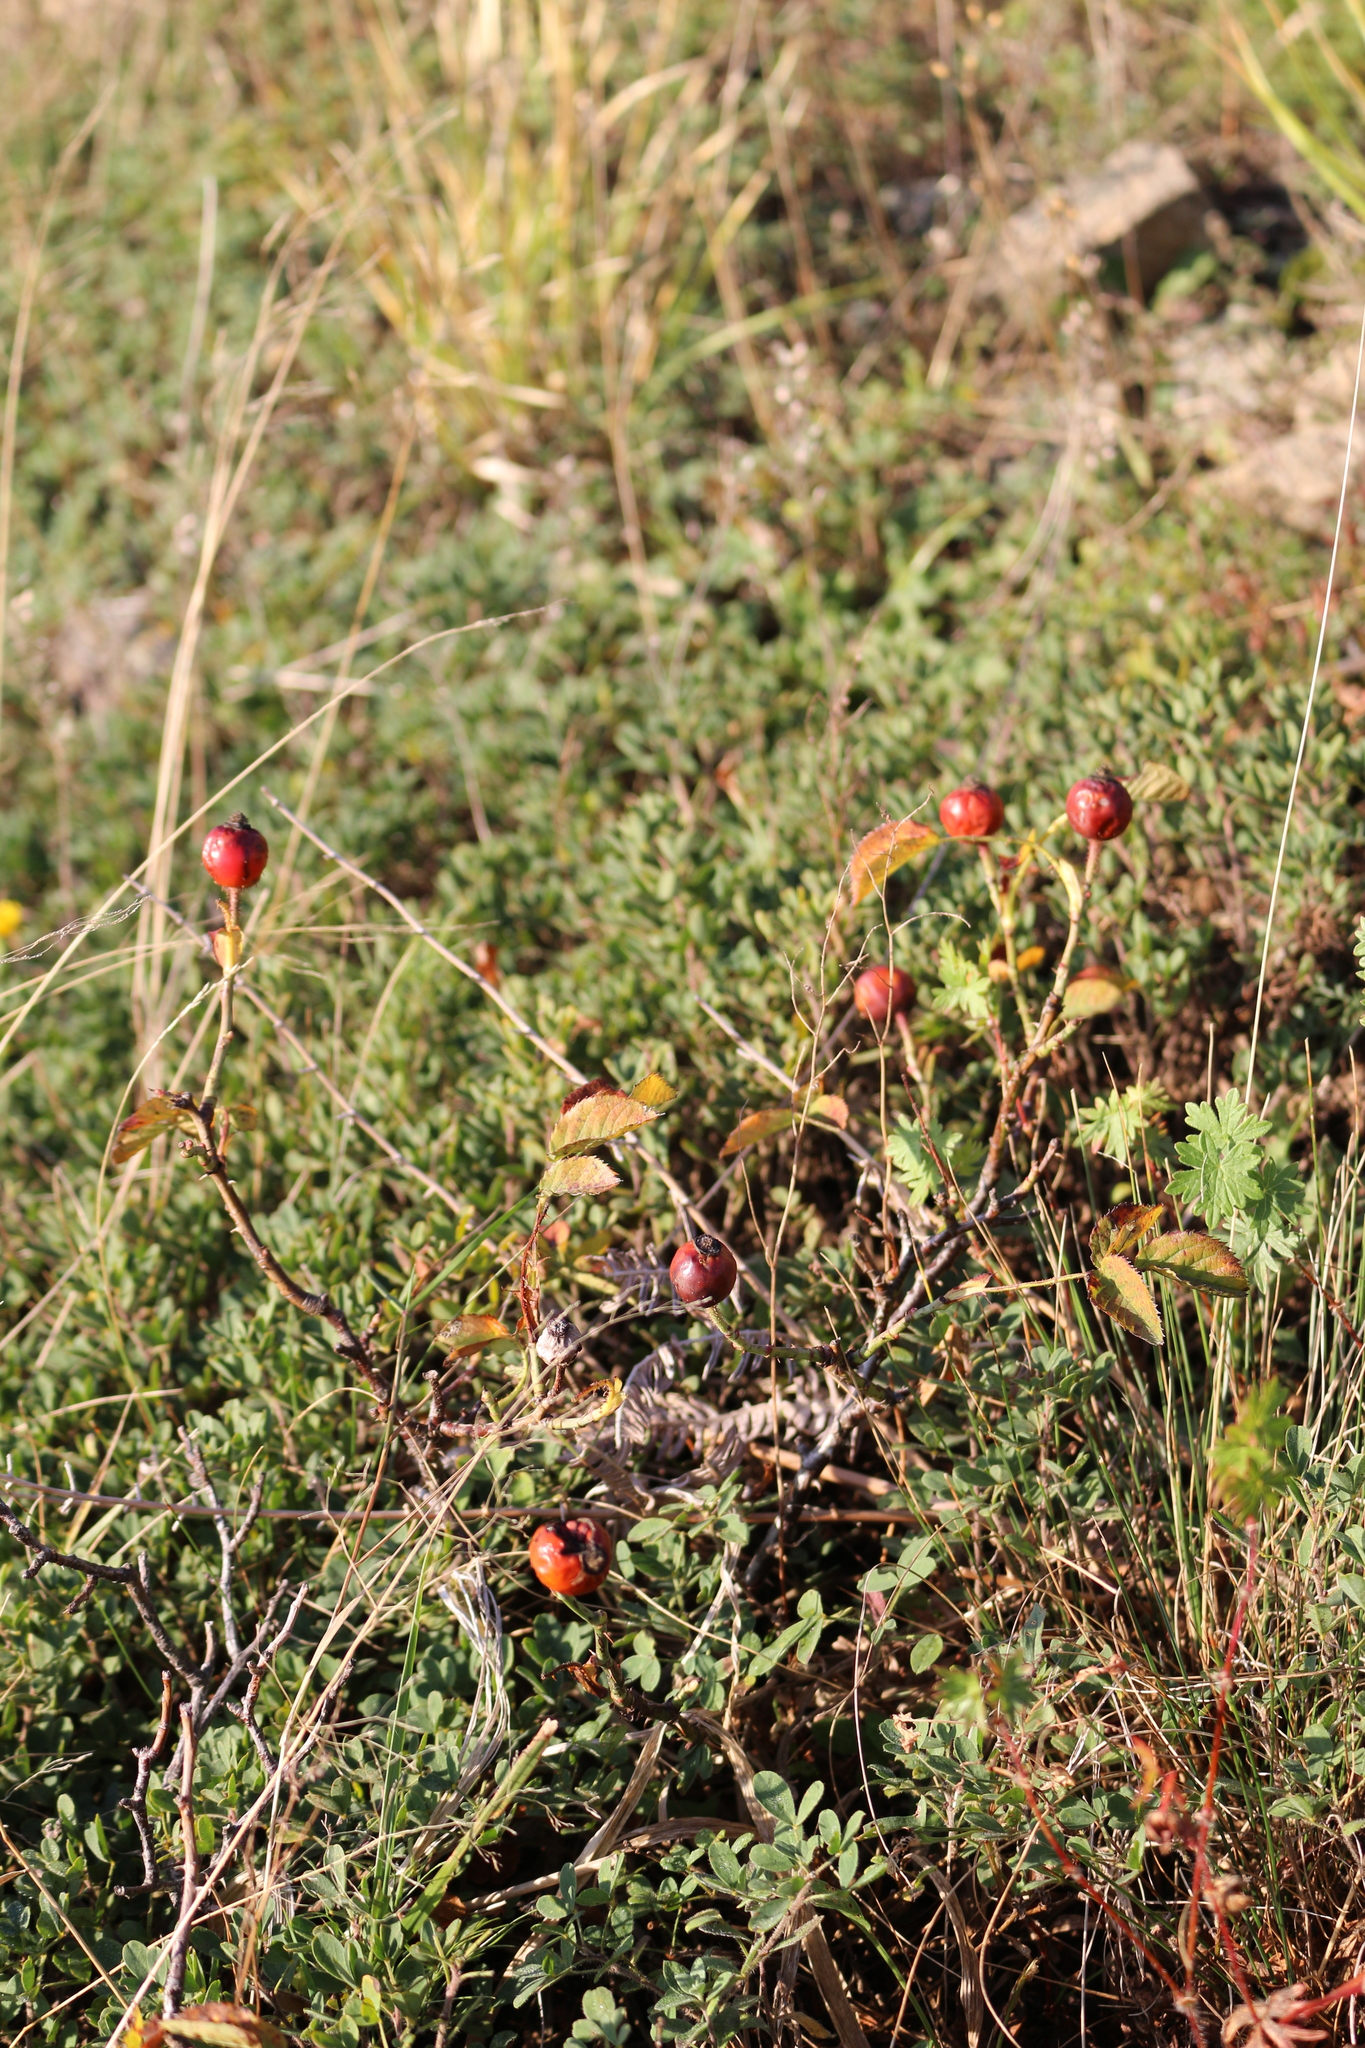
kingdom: Plantae
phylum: Tracheophyta
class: Magnoliopsida
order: Rosales
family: Rosaceae
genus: Rosa
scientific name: Rosa
